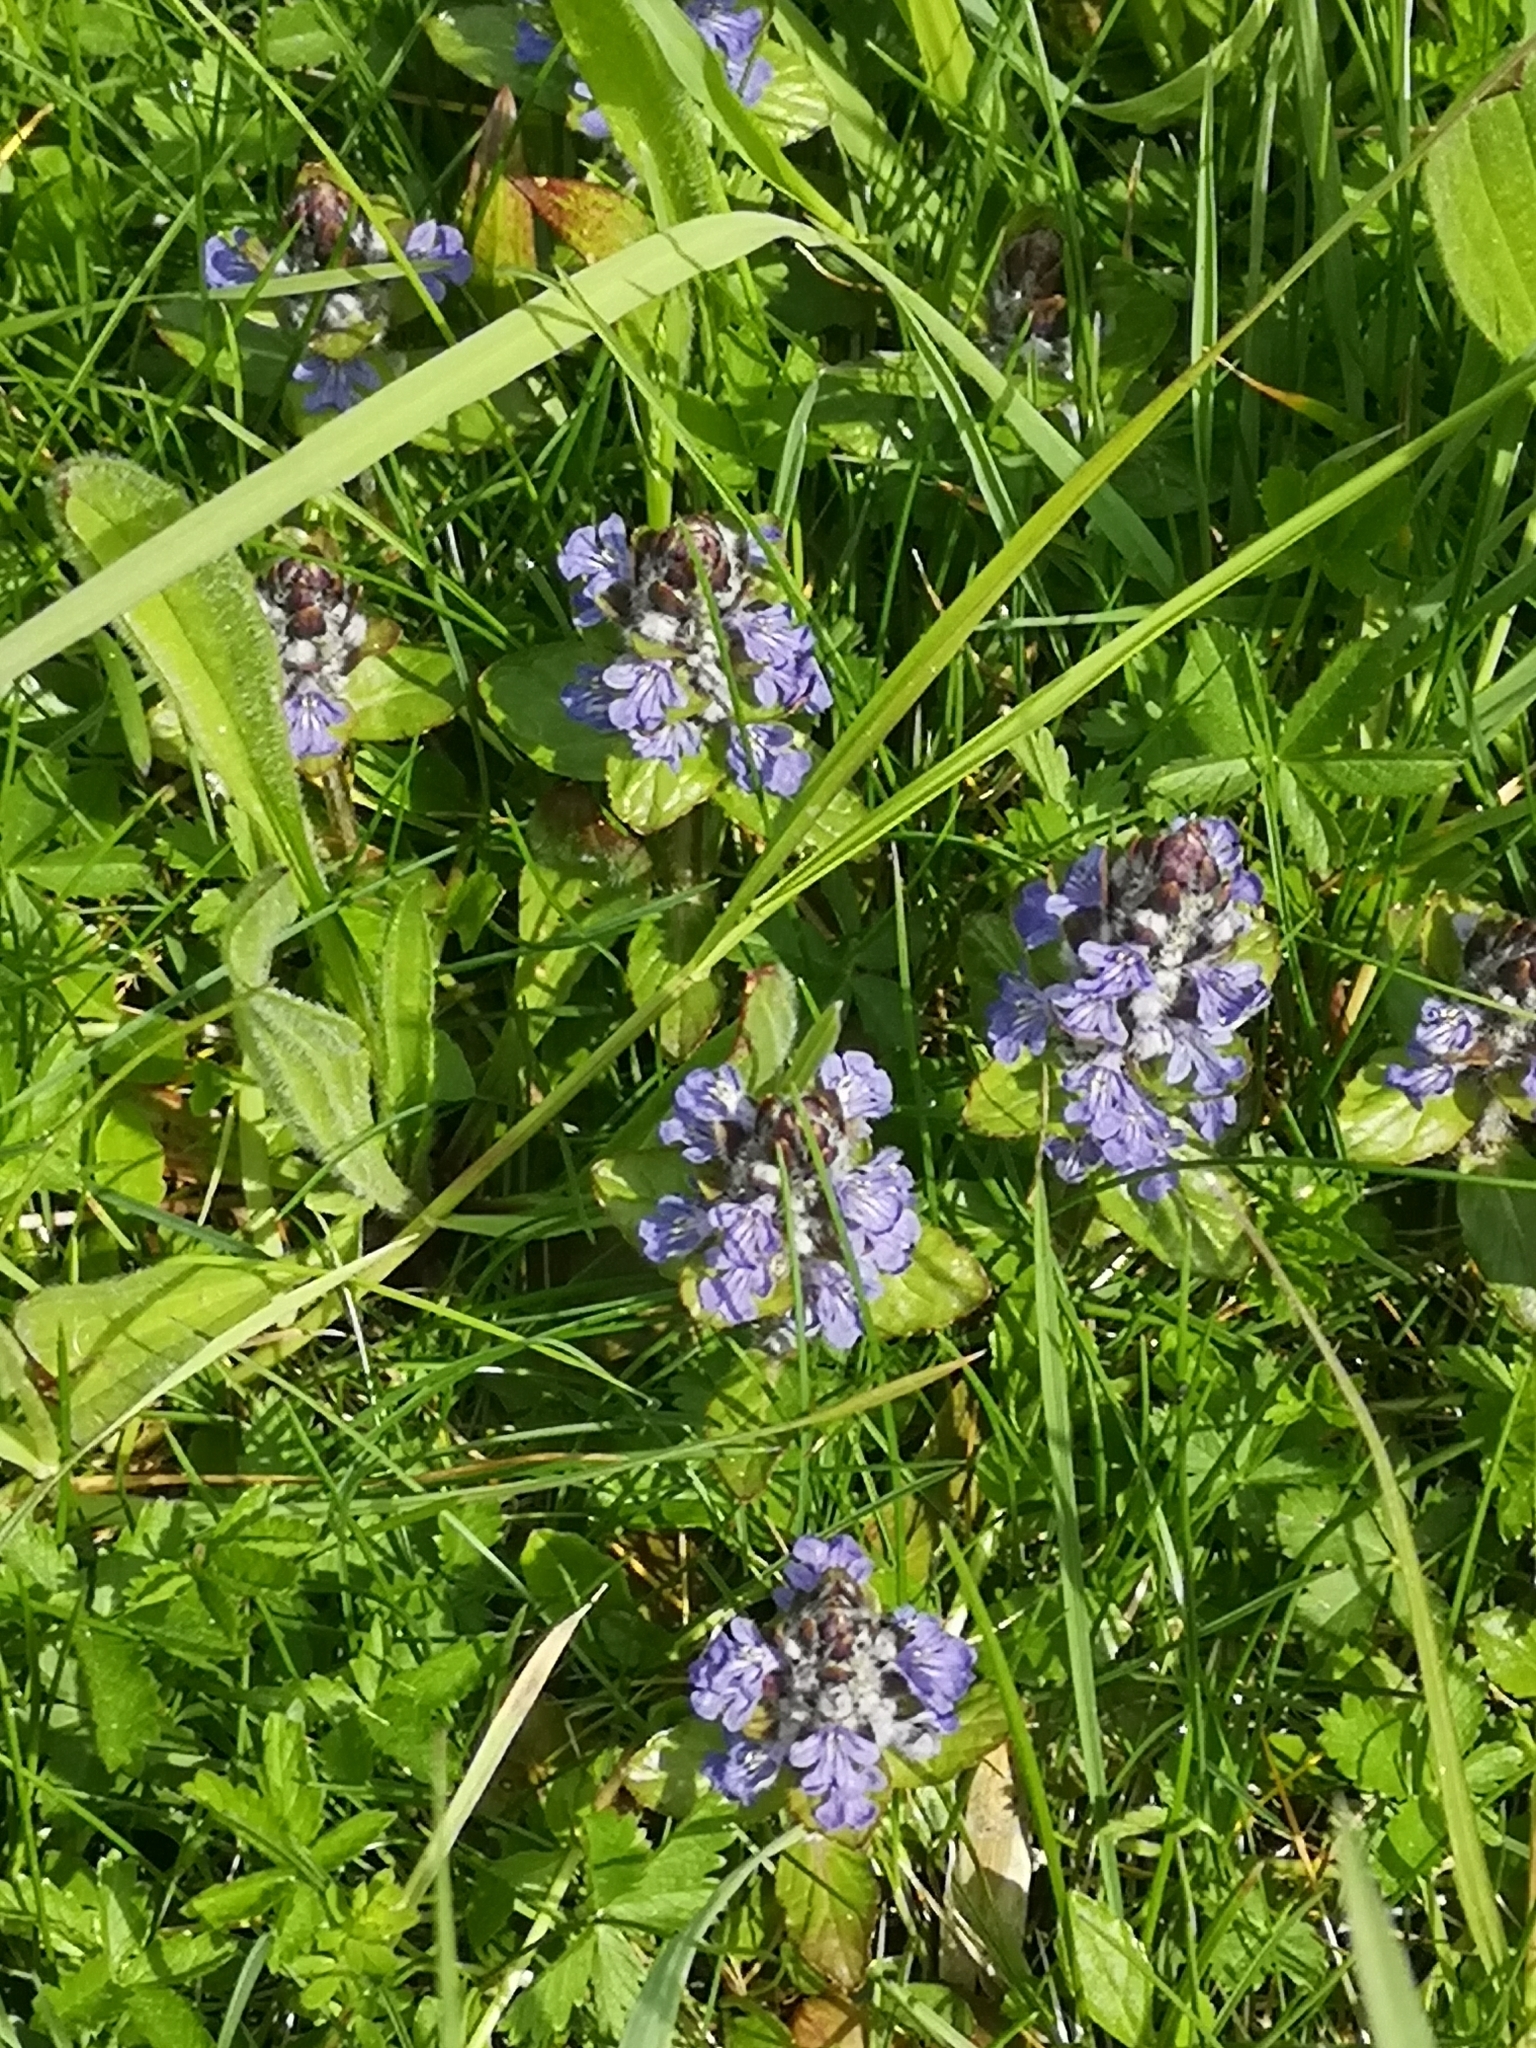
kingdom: Plantae
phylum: Tracheophyta
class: Magnoliopsida
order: Lamiales
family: Lamiaceae
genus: Ajuga
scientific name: Ajuga reptans
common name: Bugle
